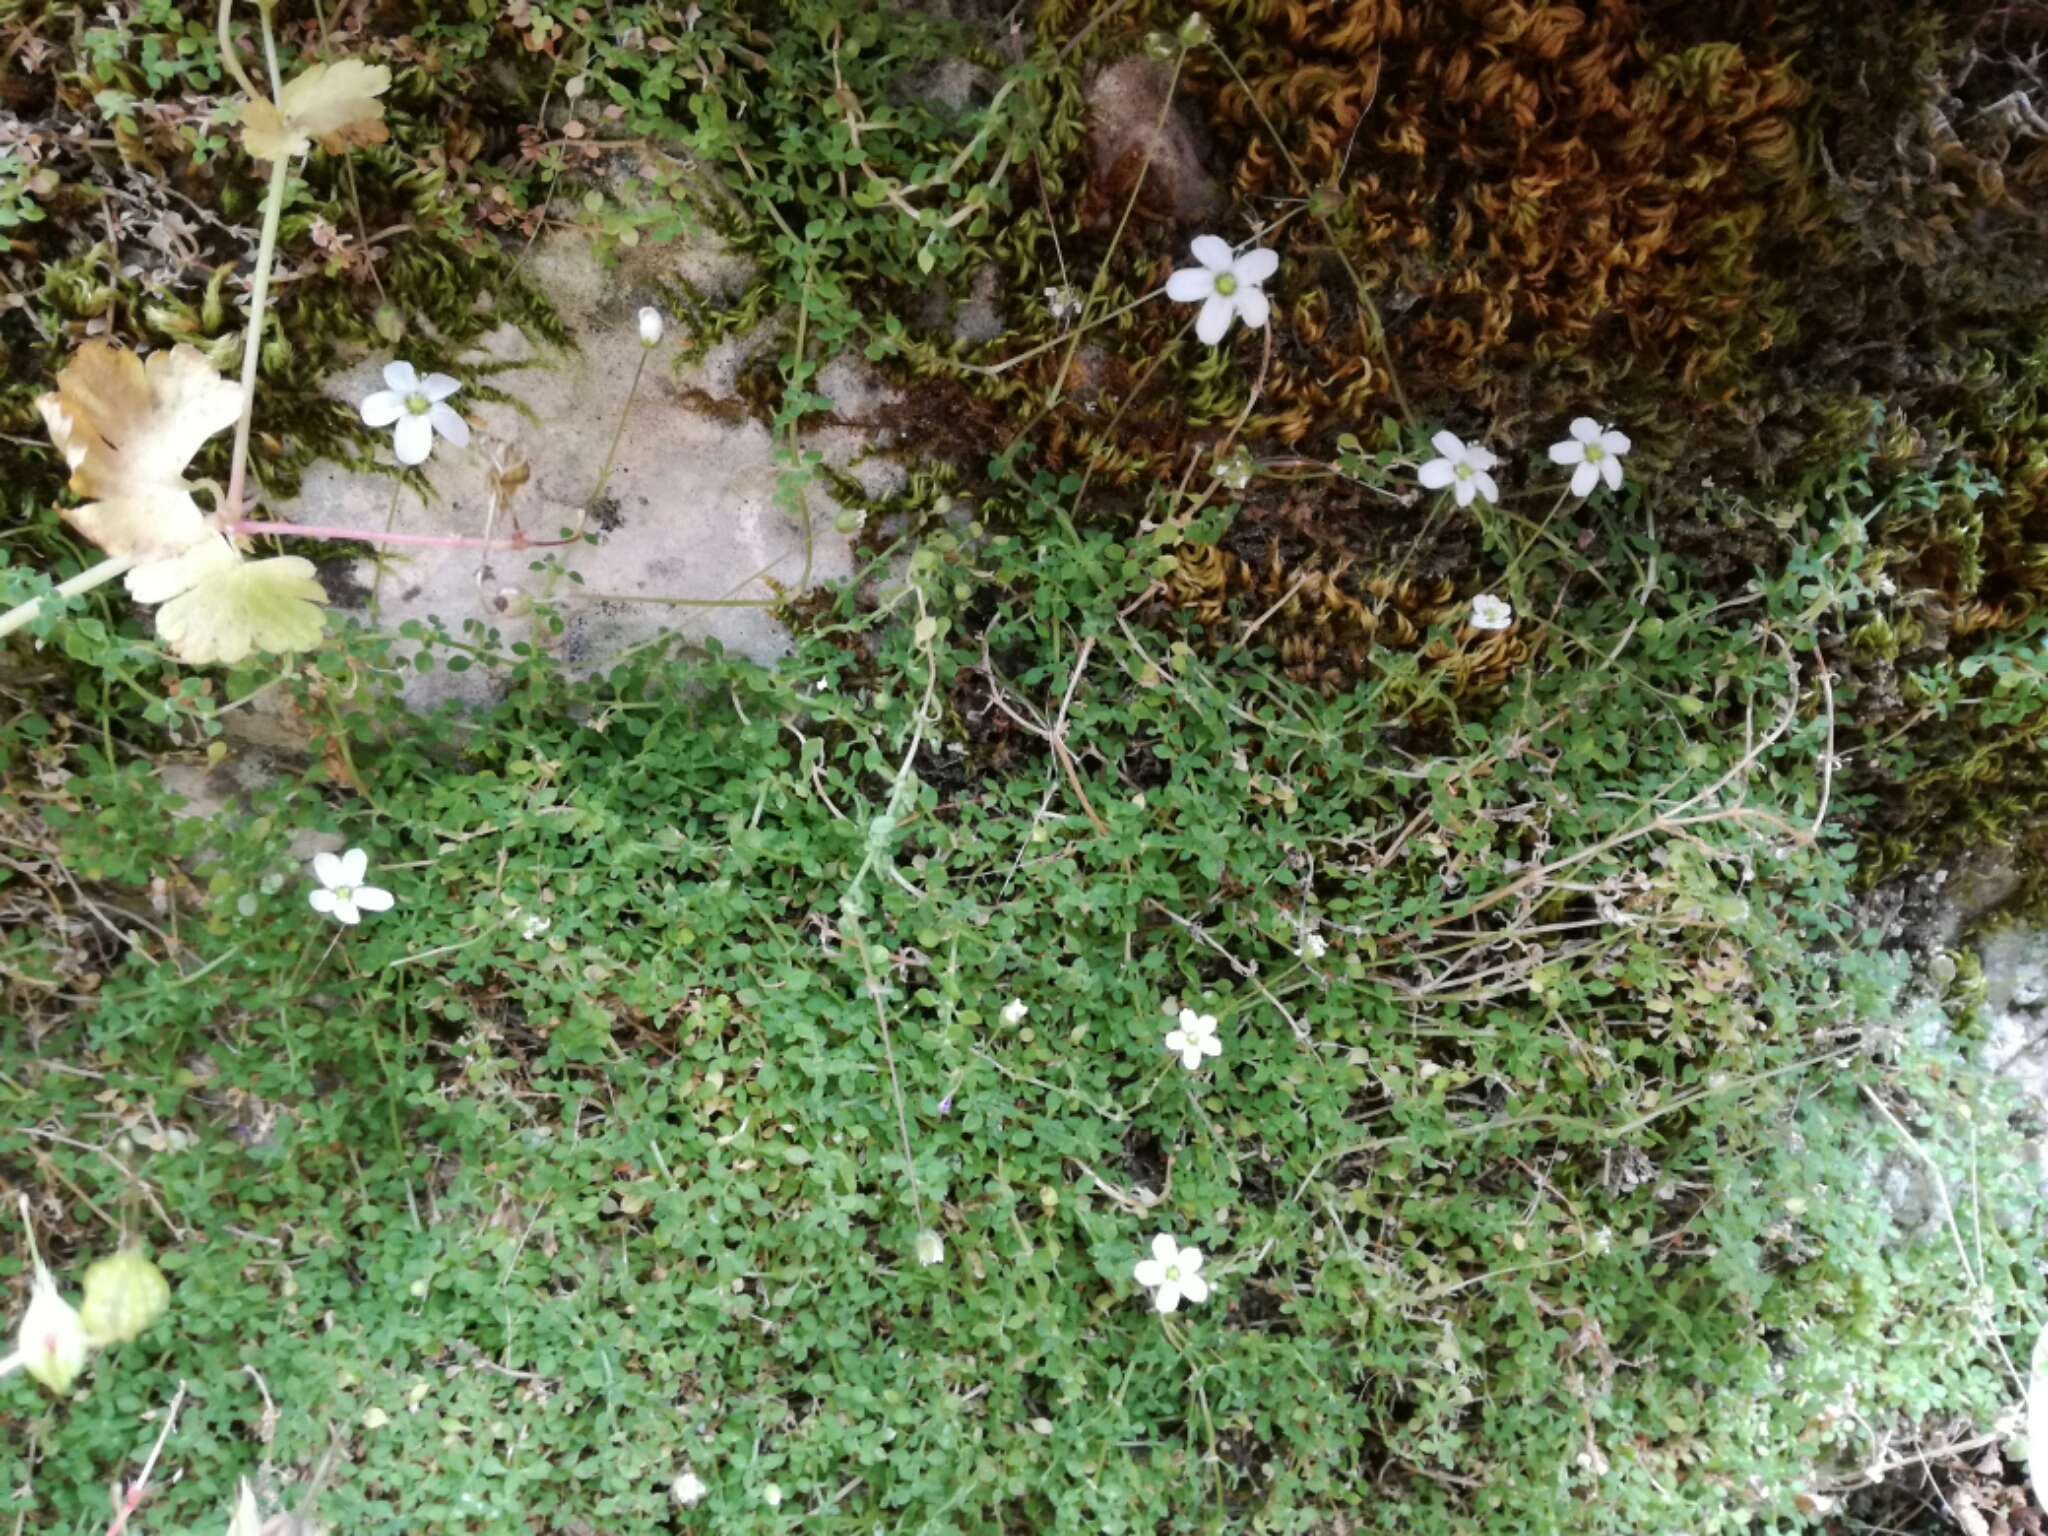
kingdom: Plantae
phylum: Tracheophyta
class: Magnoliopsida
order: Caryophyllales
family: Caryophyllaceae
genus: Arenaria
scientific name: Arenaria balearica
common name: Mossy sandwort
